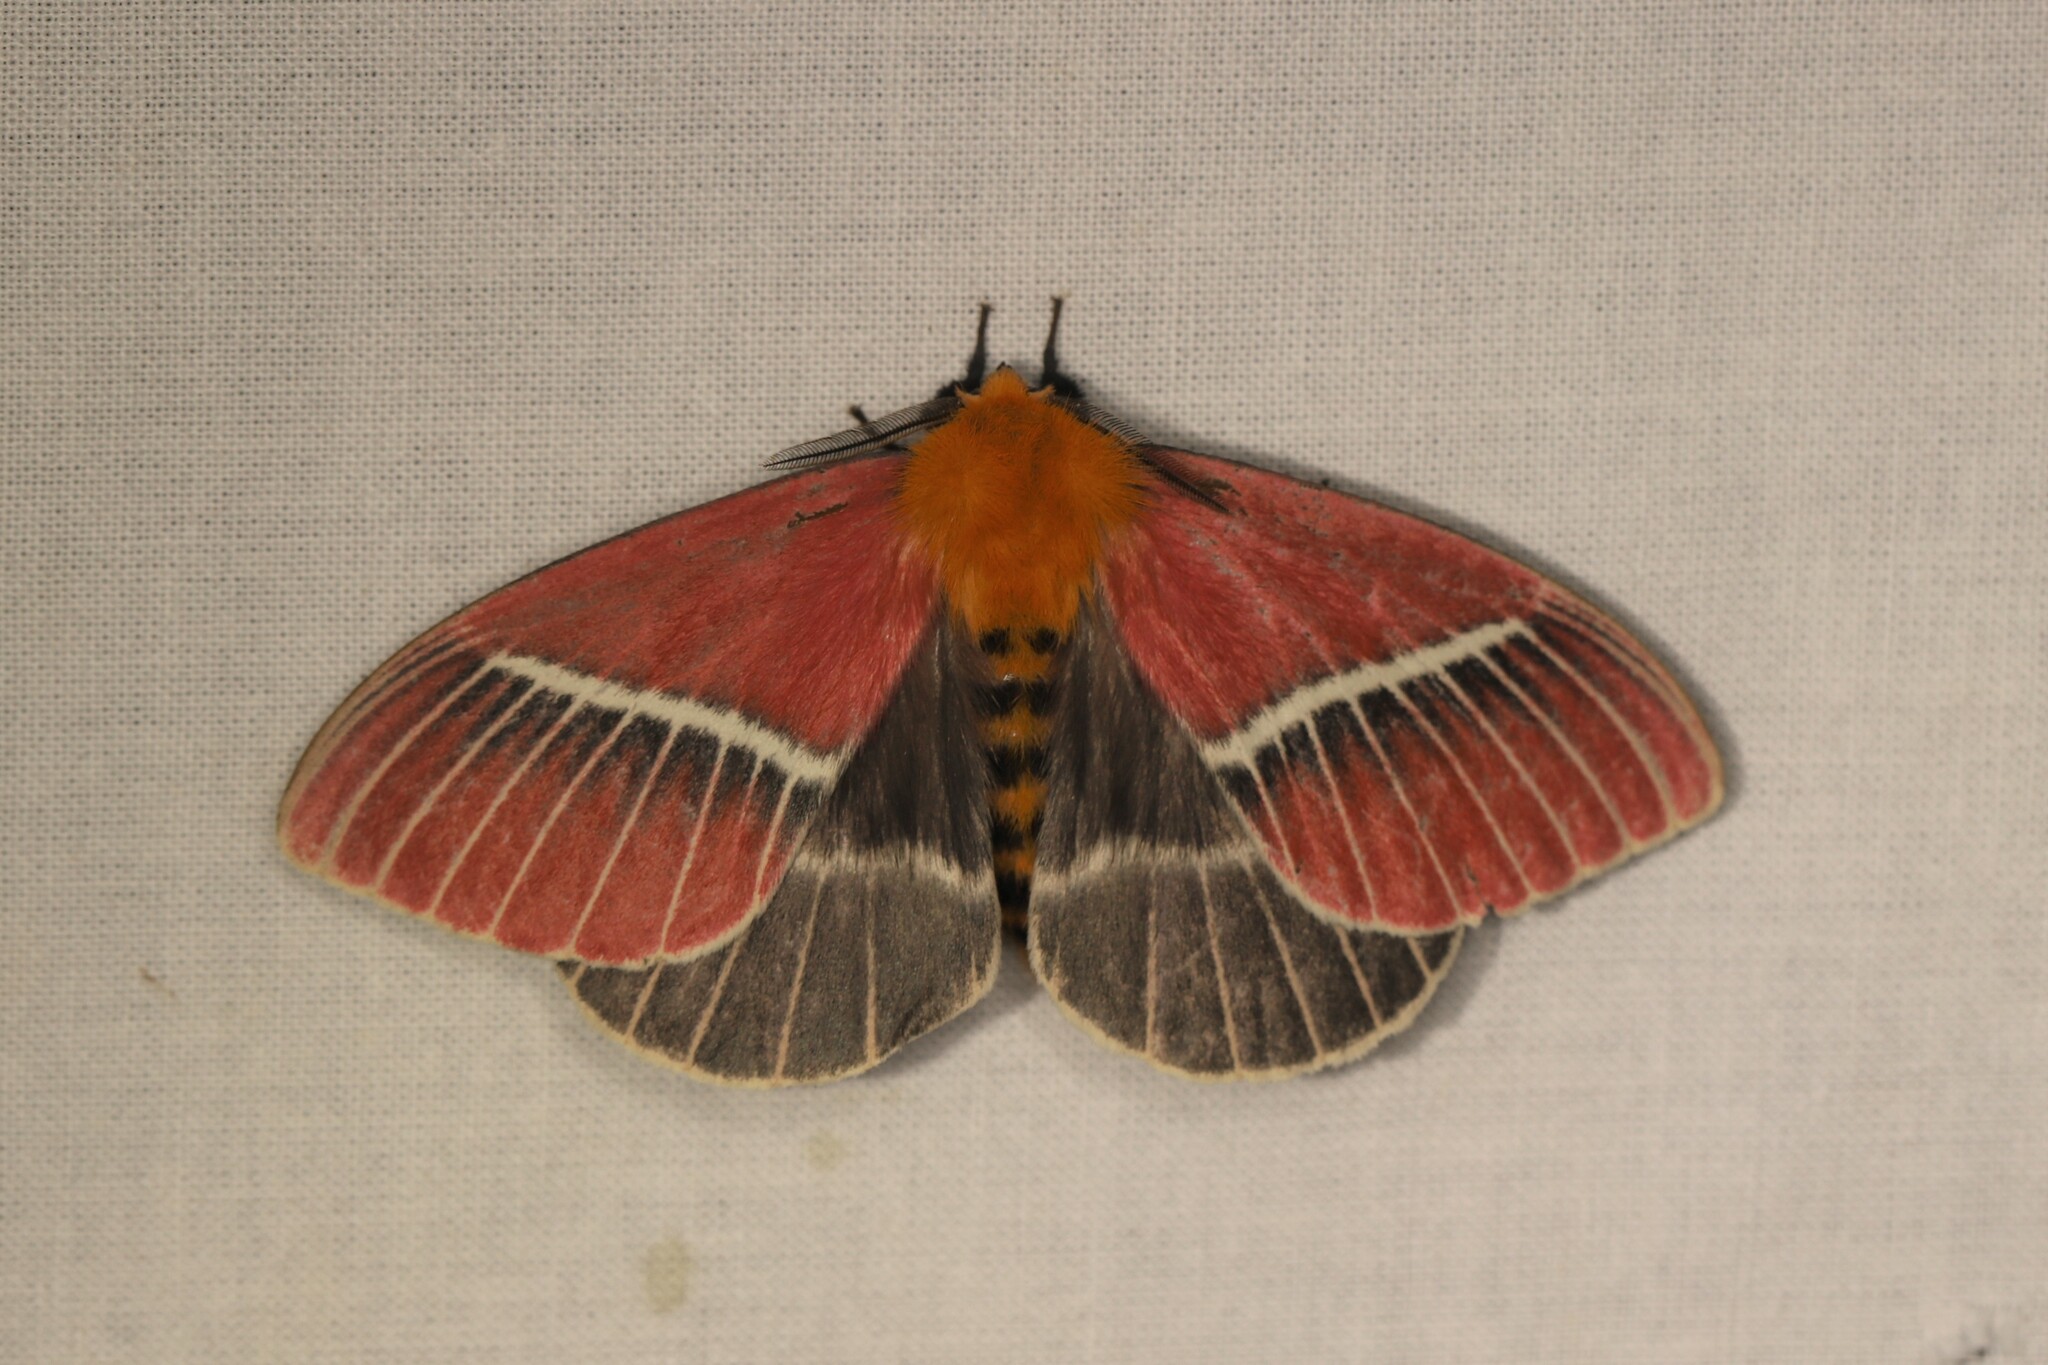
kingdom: Animalia
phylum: Arthropoda
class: Insecta
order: Lepidoptera
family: Saturniidae
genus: Pseudodirphia
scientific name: Pseudodirphia menander
